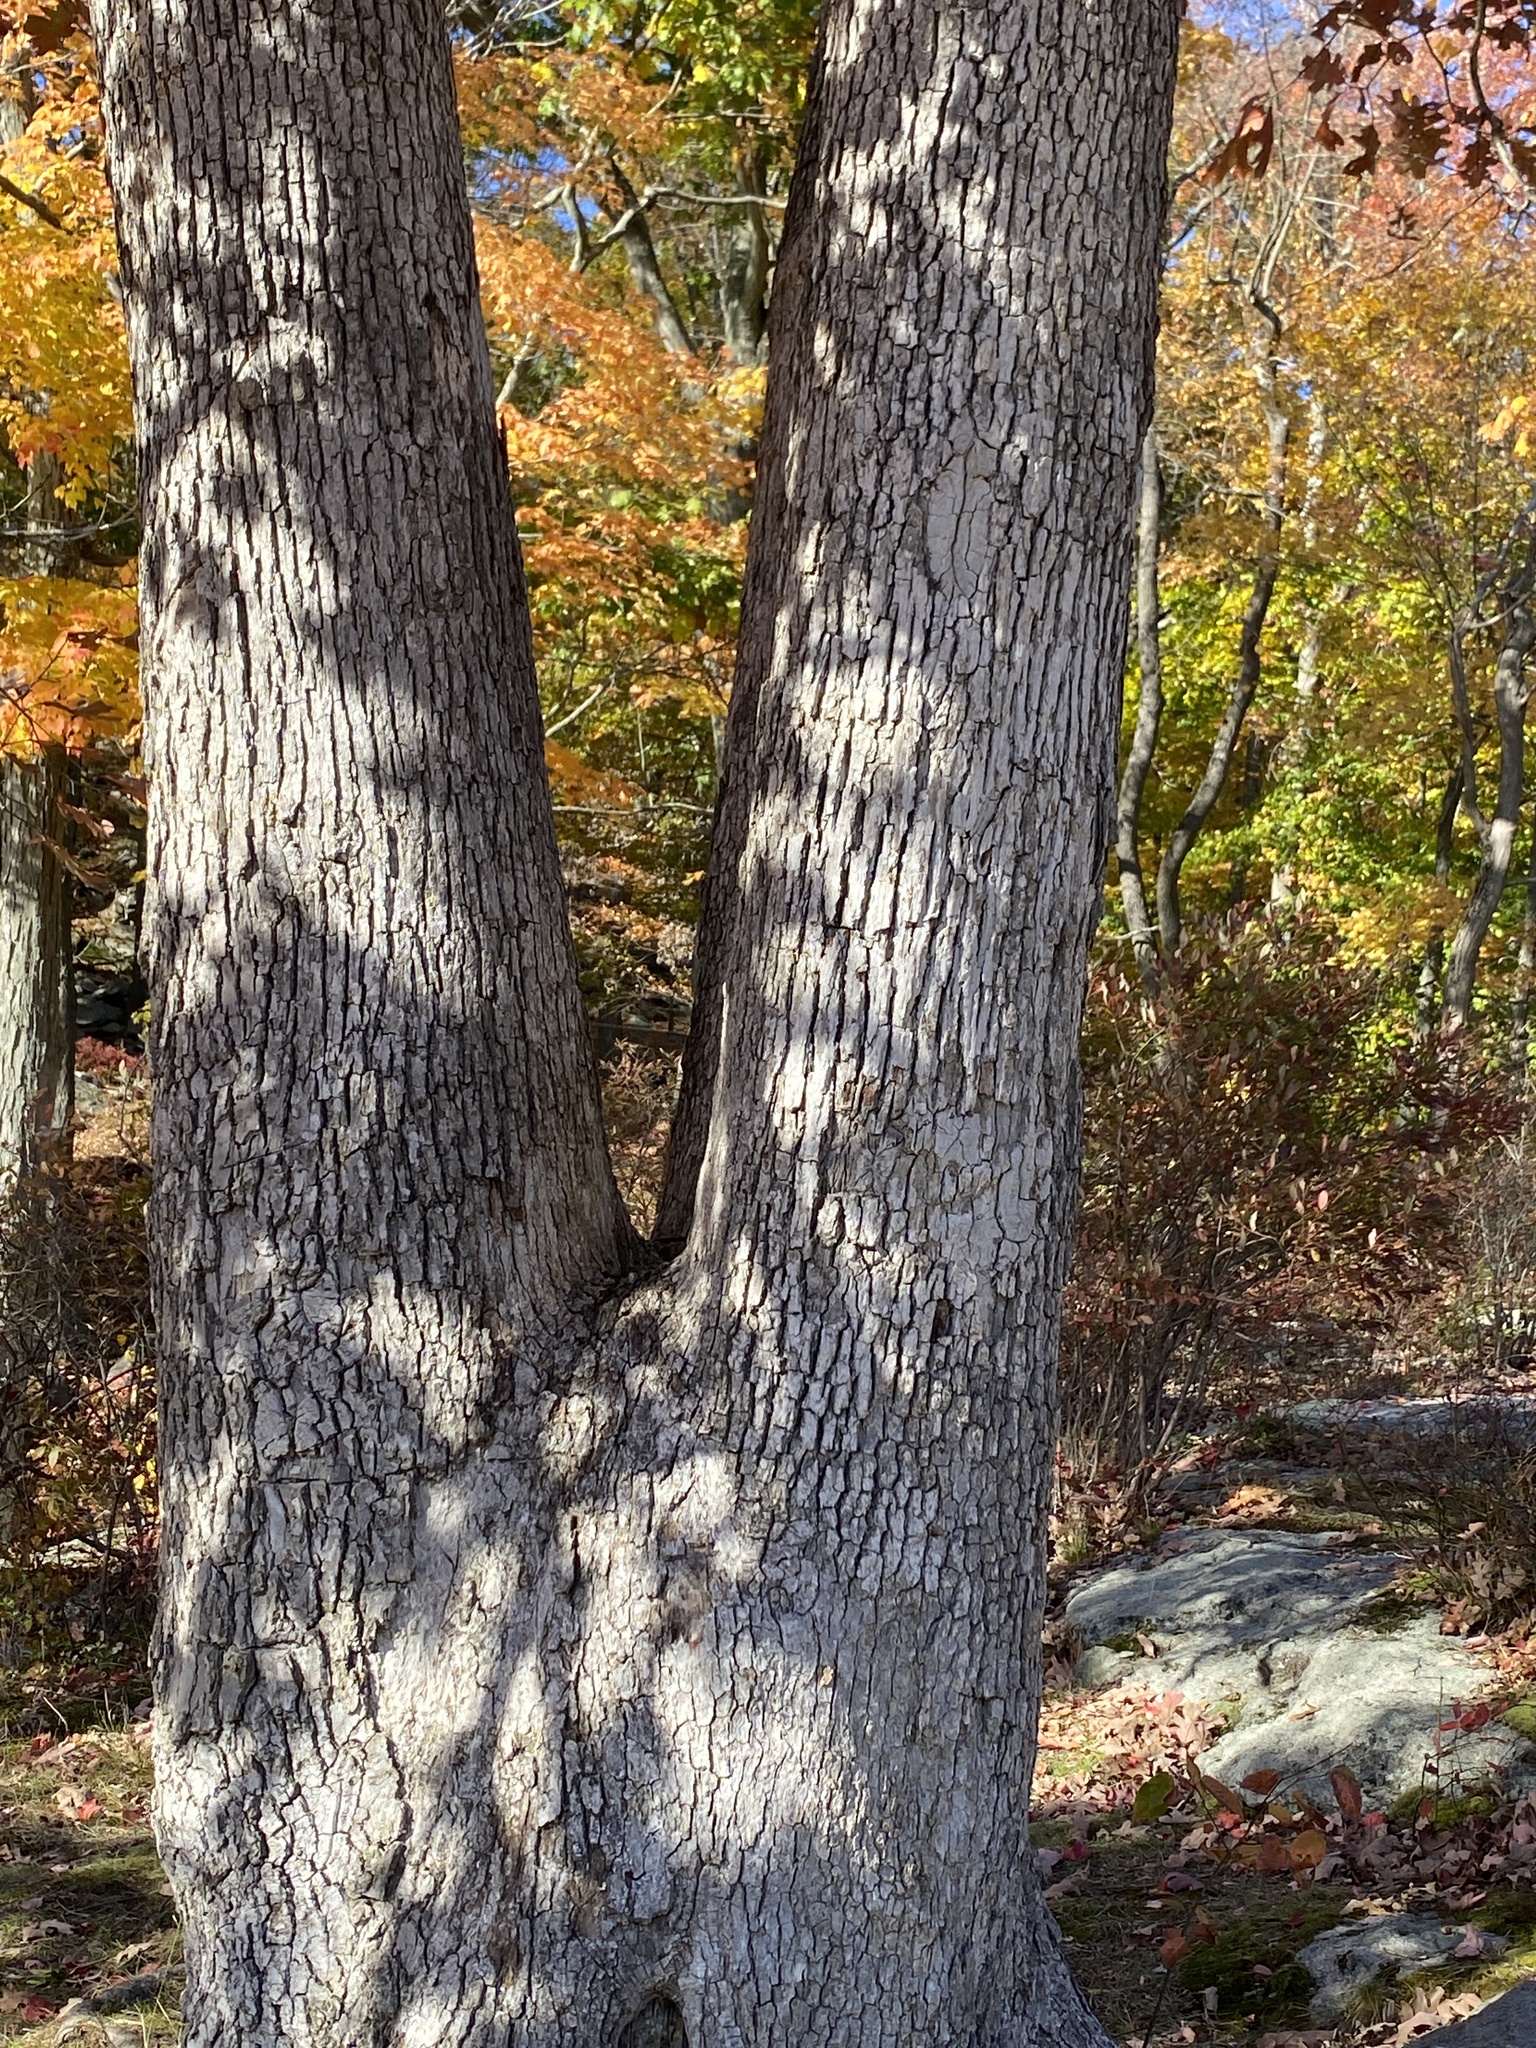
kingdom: Plantae
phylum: Tracheophyta
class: Magnoliopsida
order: Fagales
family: Fagaceae
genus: Quercus
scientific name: Quercus alba
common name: White oak
